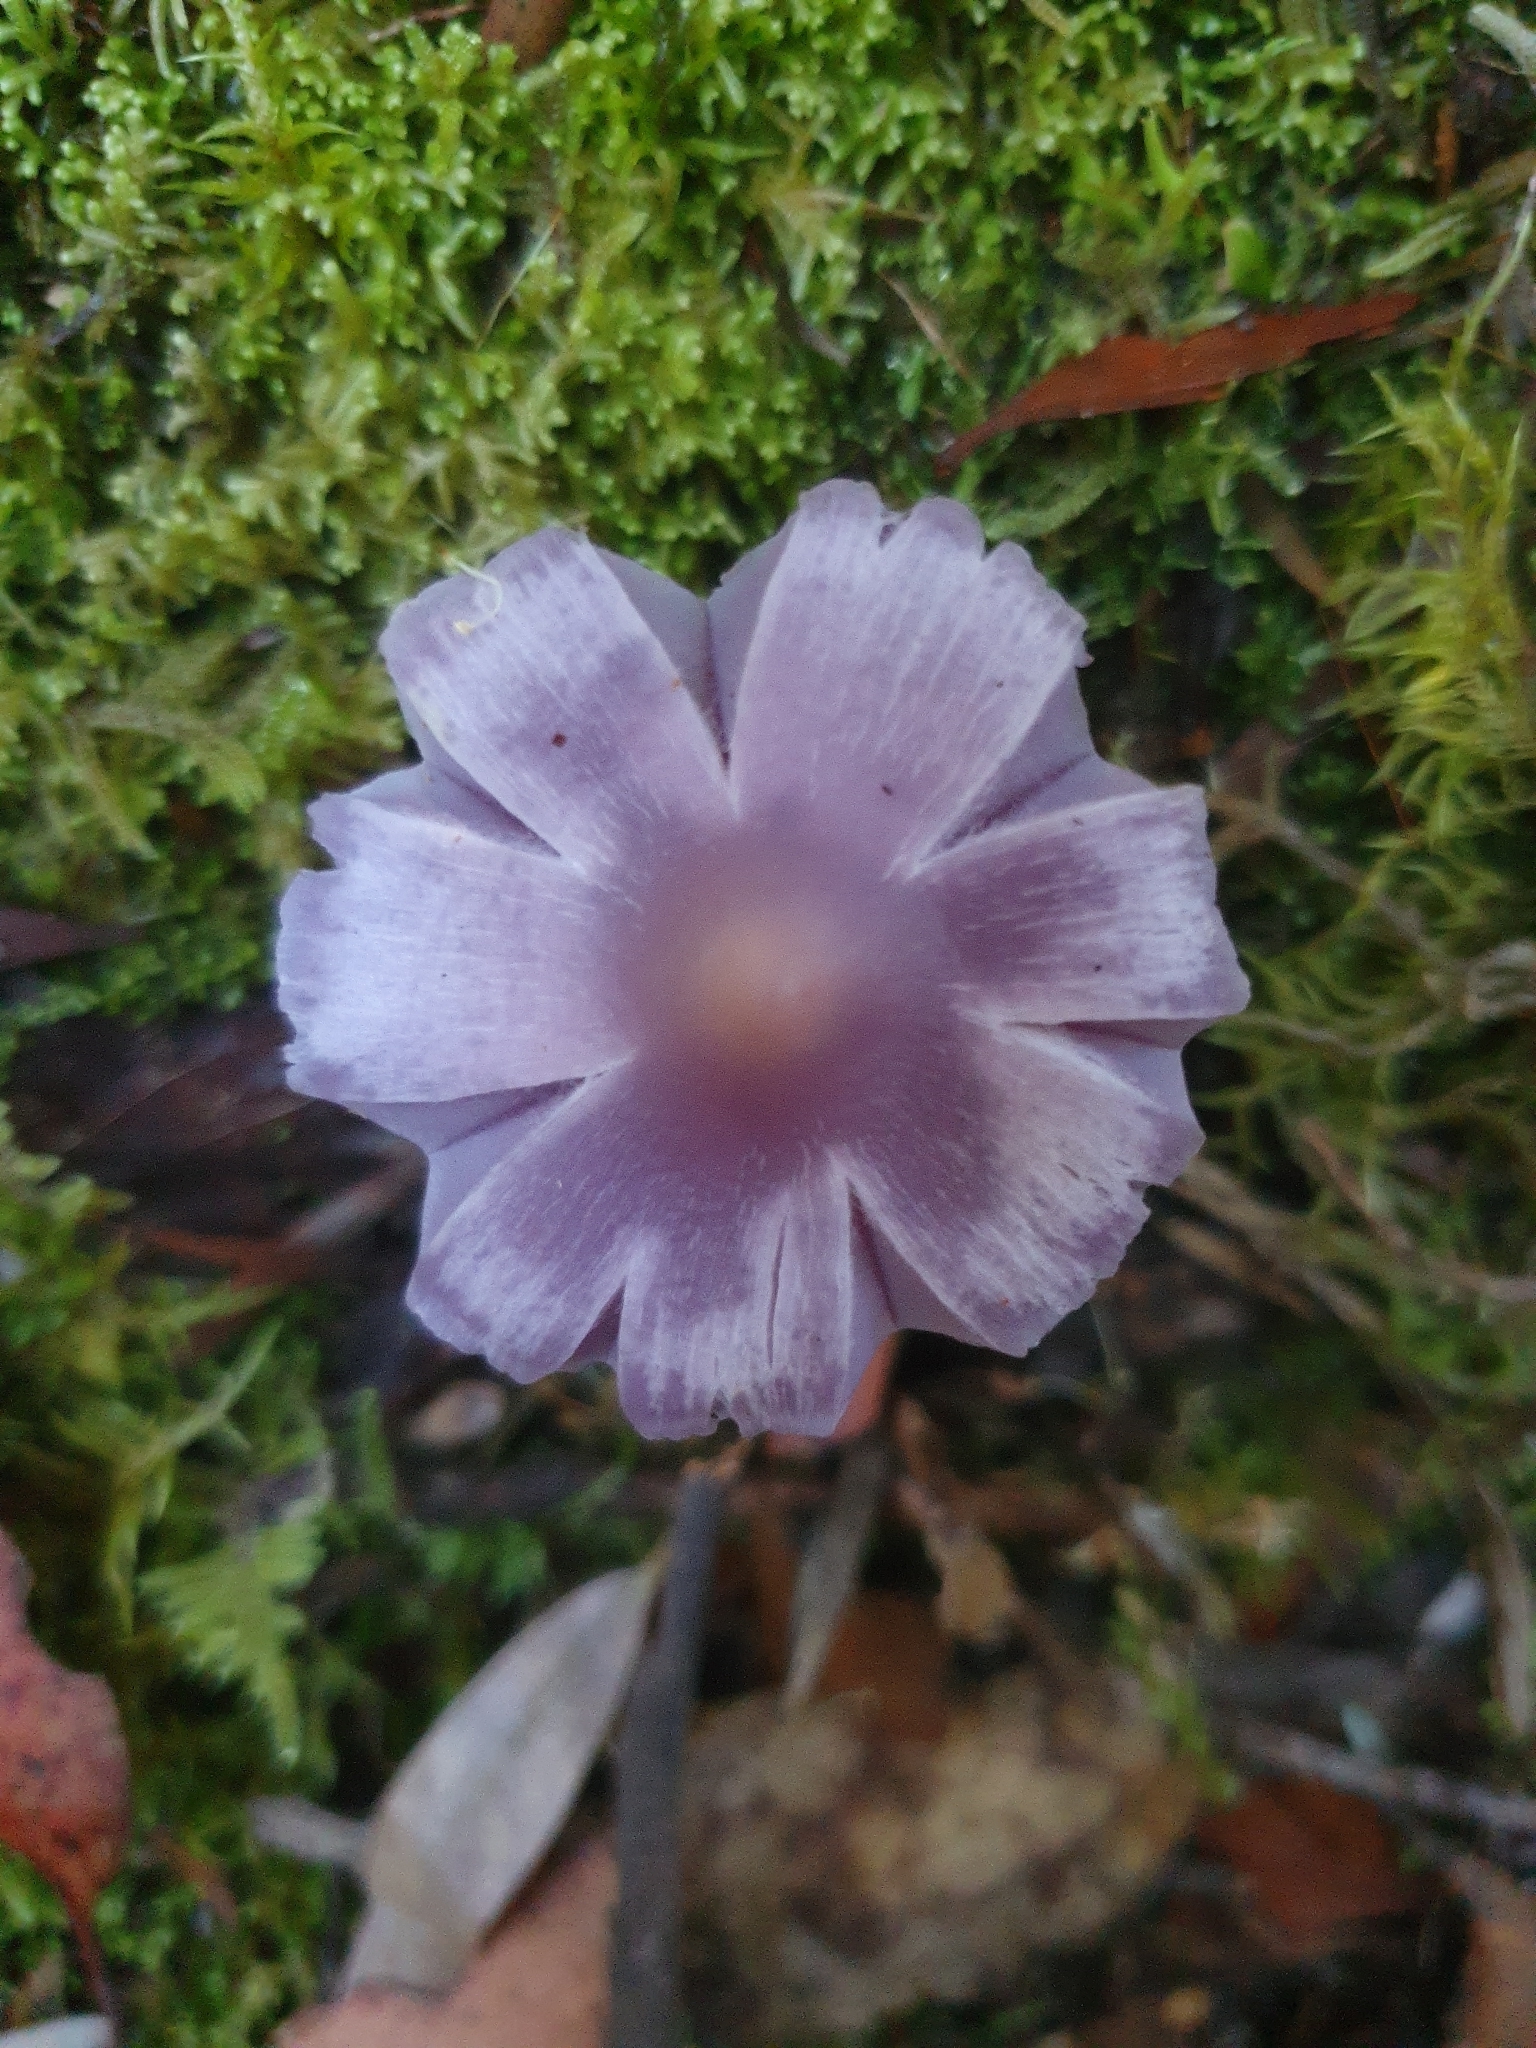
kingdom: Fungi
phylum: Basidiomycota
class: Agaricomycetes
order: Agaricales
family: Hygrophoraceae
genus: Porpolomopsis
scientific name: Porpolomopsis lewelliniae
